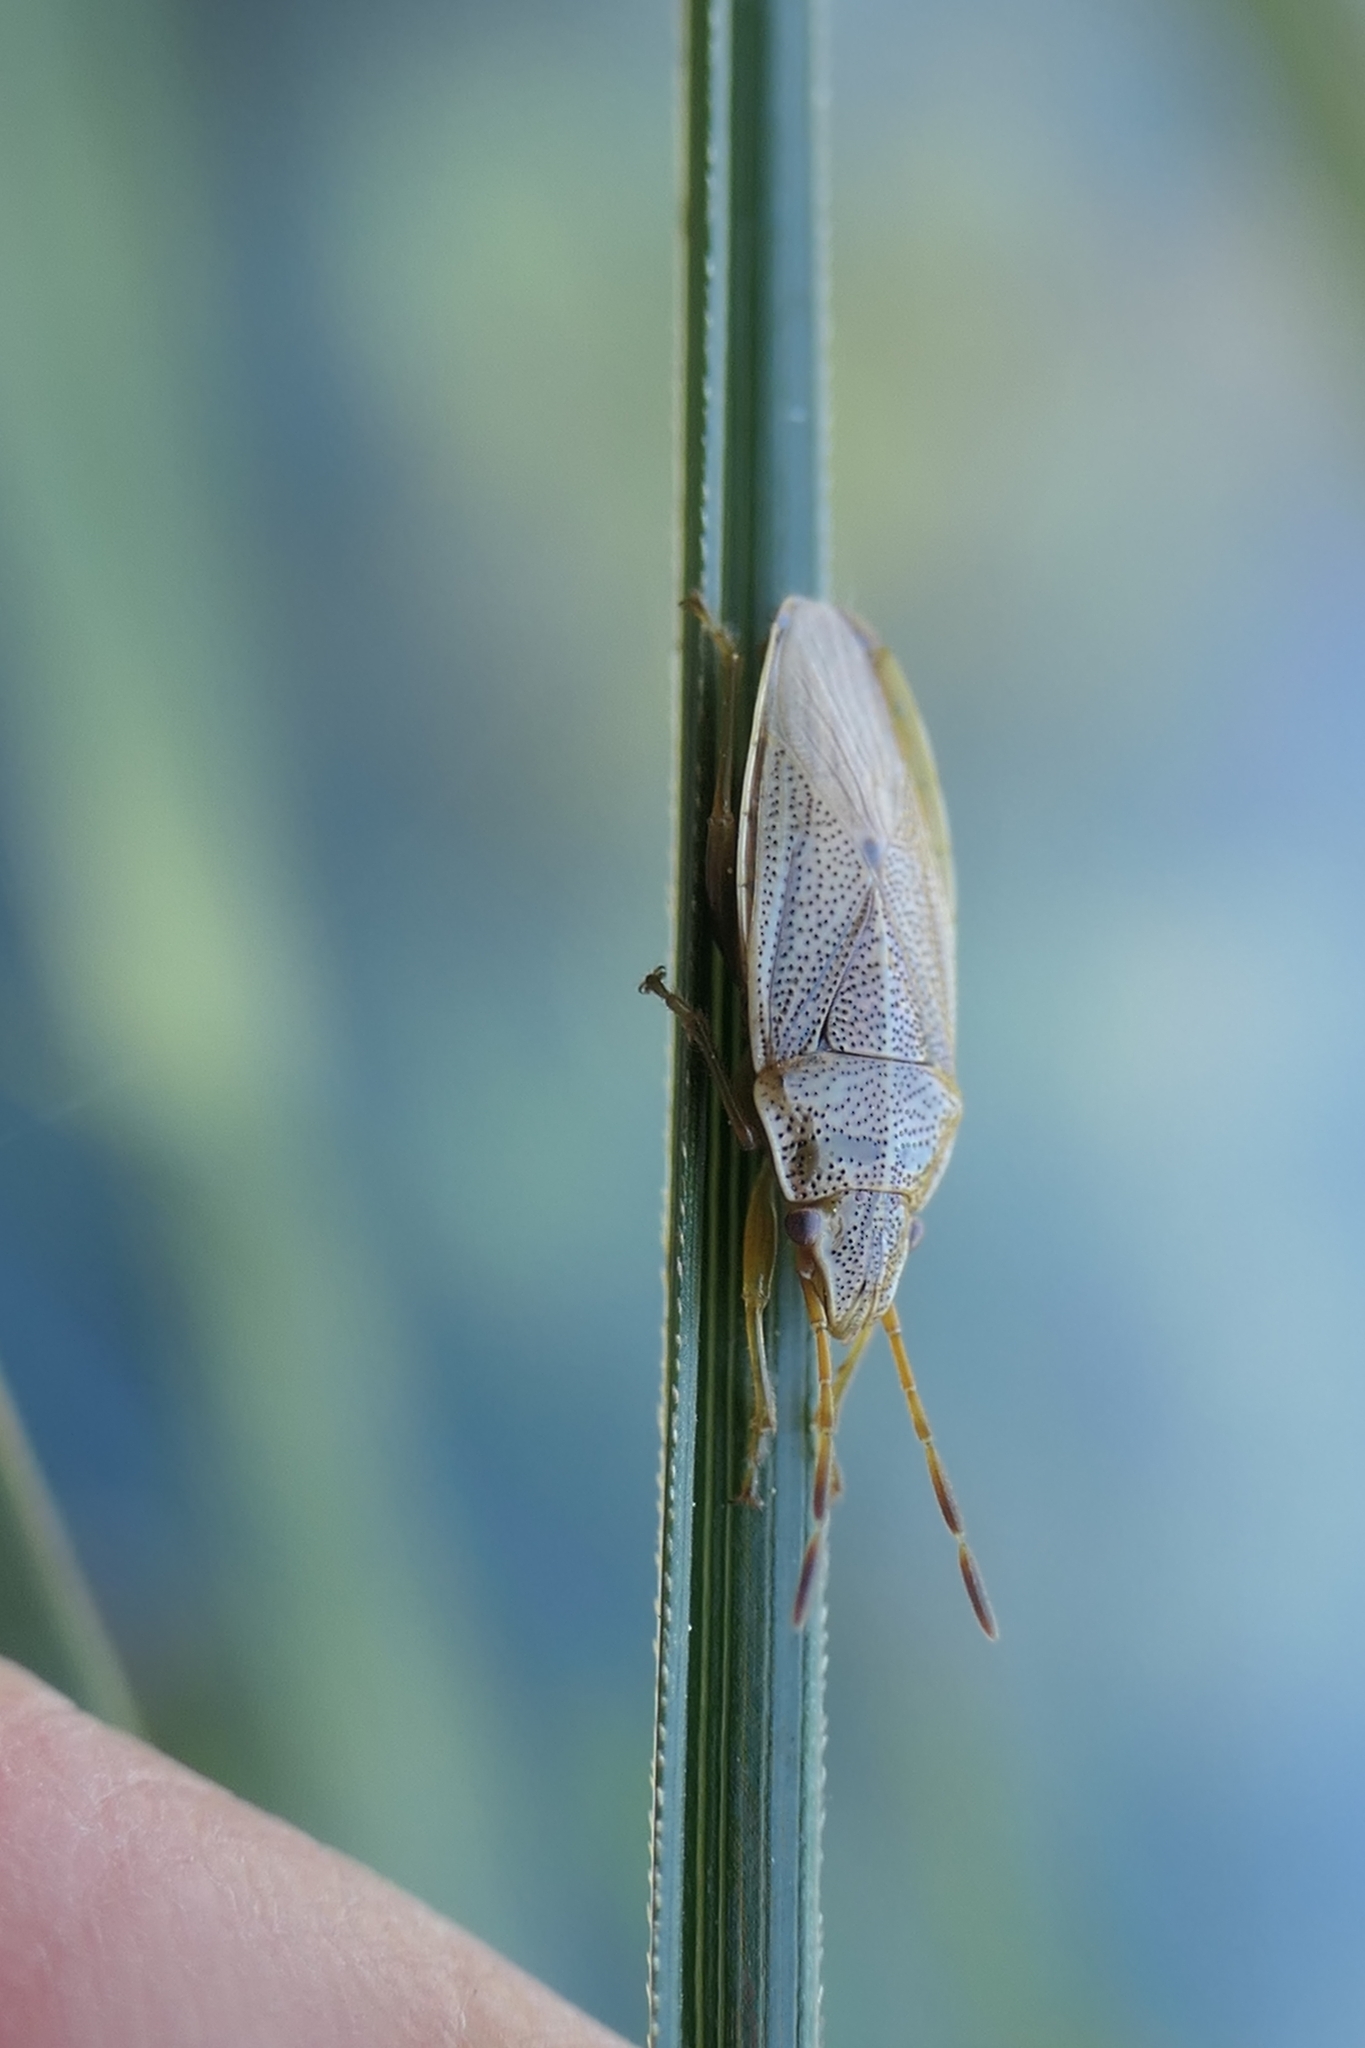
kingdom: Animalia
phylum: Arthropoda
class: Insecta
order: Hemiptera
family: Acanthosomatidae
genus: Rhopalimorpha
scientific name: Rhopalimorpha obscura
